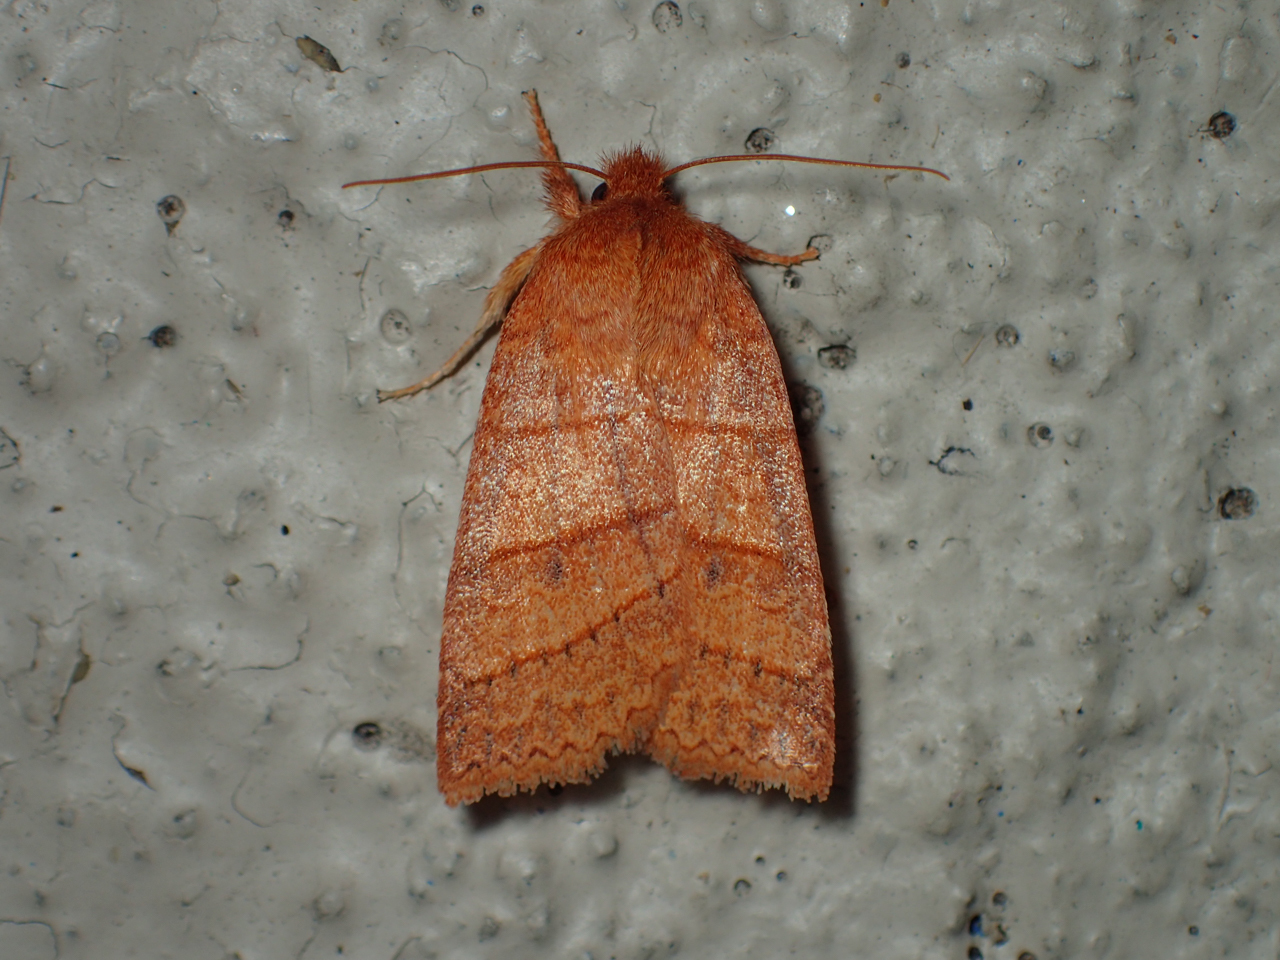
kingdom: Animalia
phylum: Arthropoda
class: Insecta
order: Lepidoptera
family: Noctuidae
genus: Pyreferra
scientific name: Pyreferra pettiti
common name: Pettit's sallow
